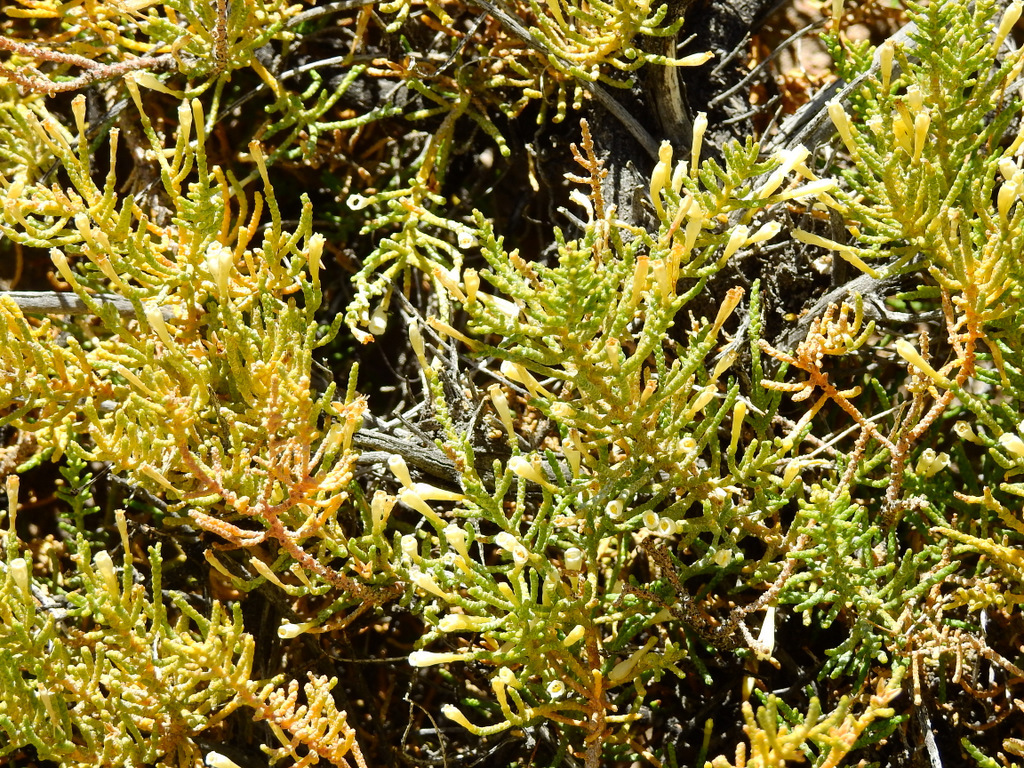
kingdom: Plantae
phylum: Tracheophyta
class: Magnoliopsida
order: Solanales
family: Solanaceae
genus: Fabiana
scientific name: Fabiana imbricata
